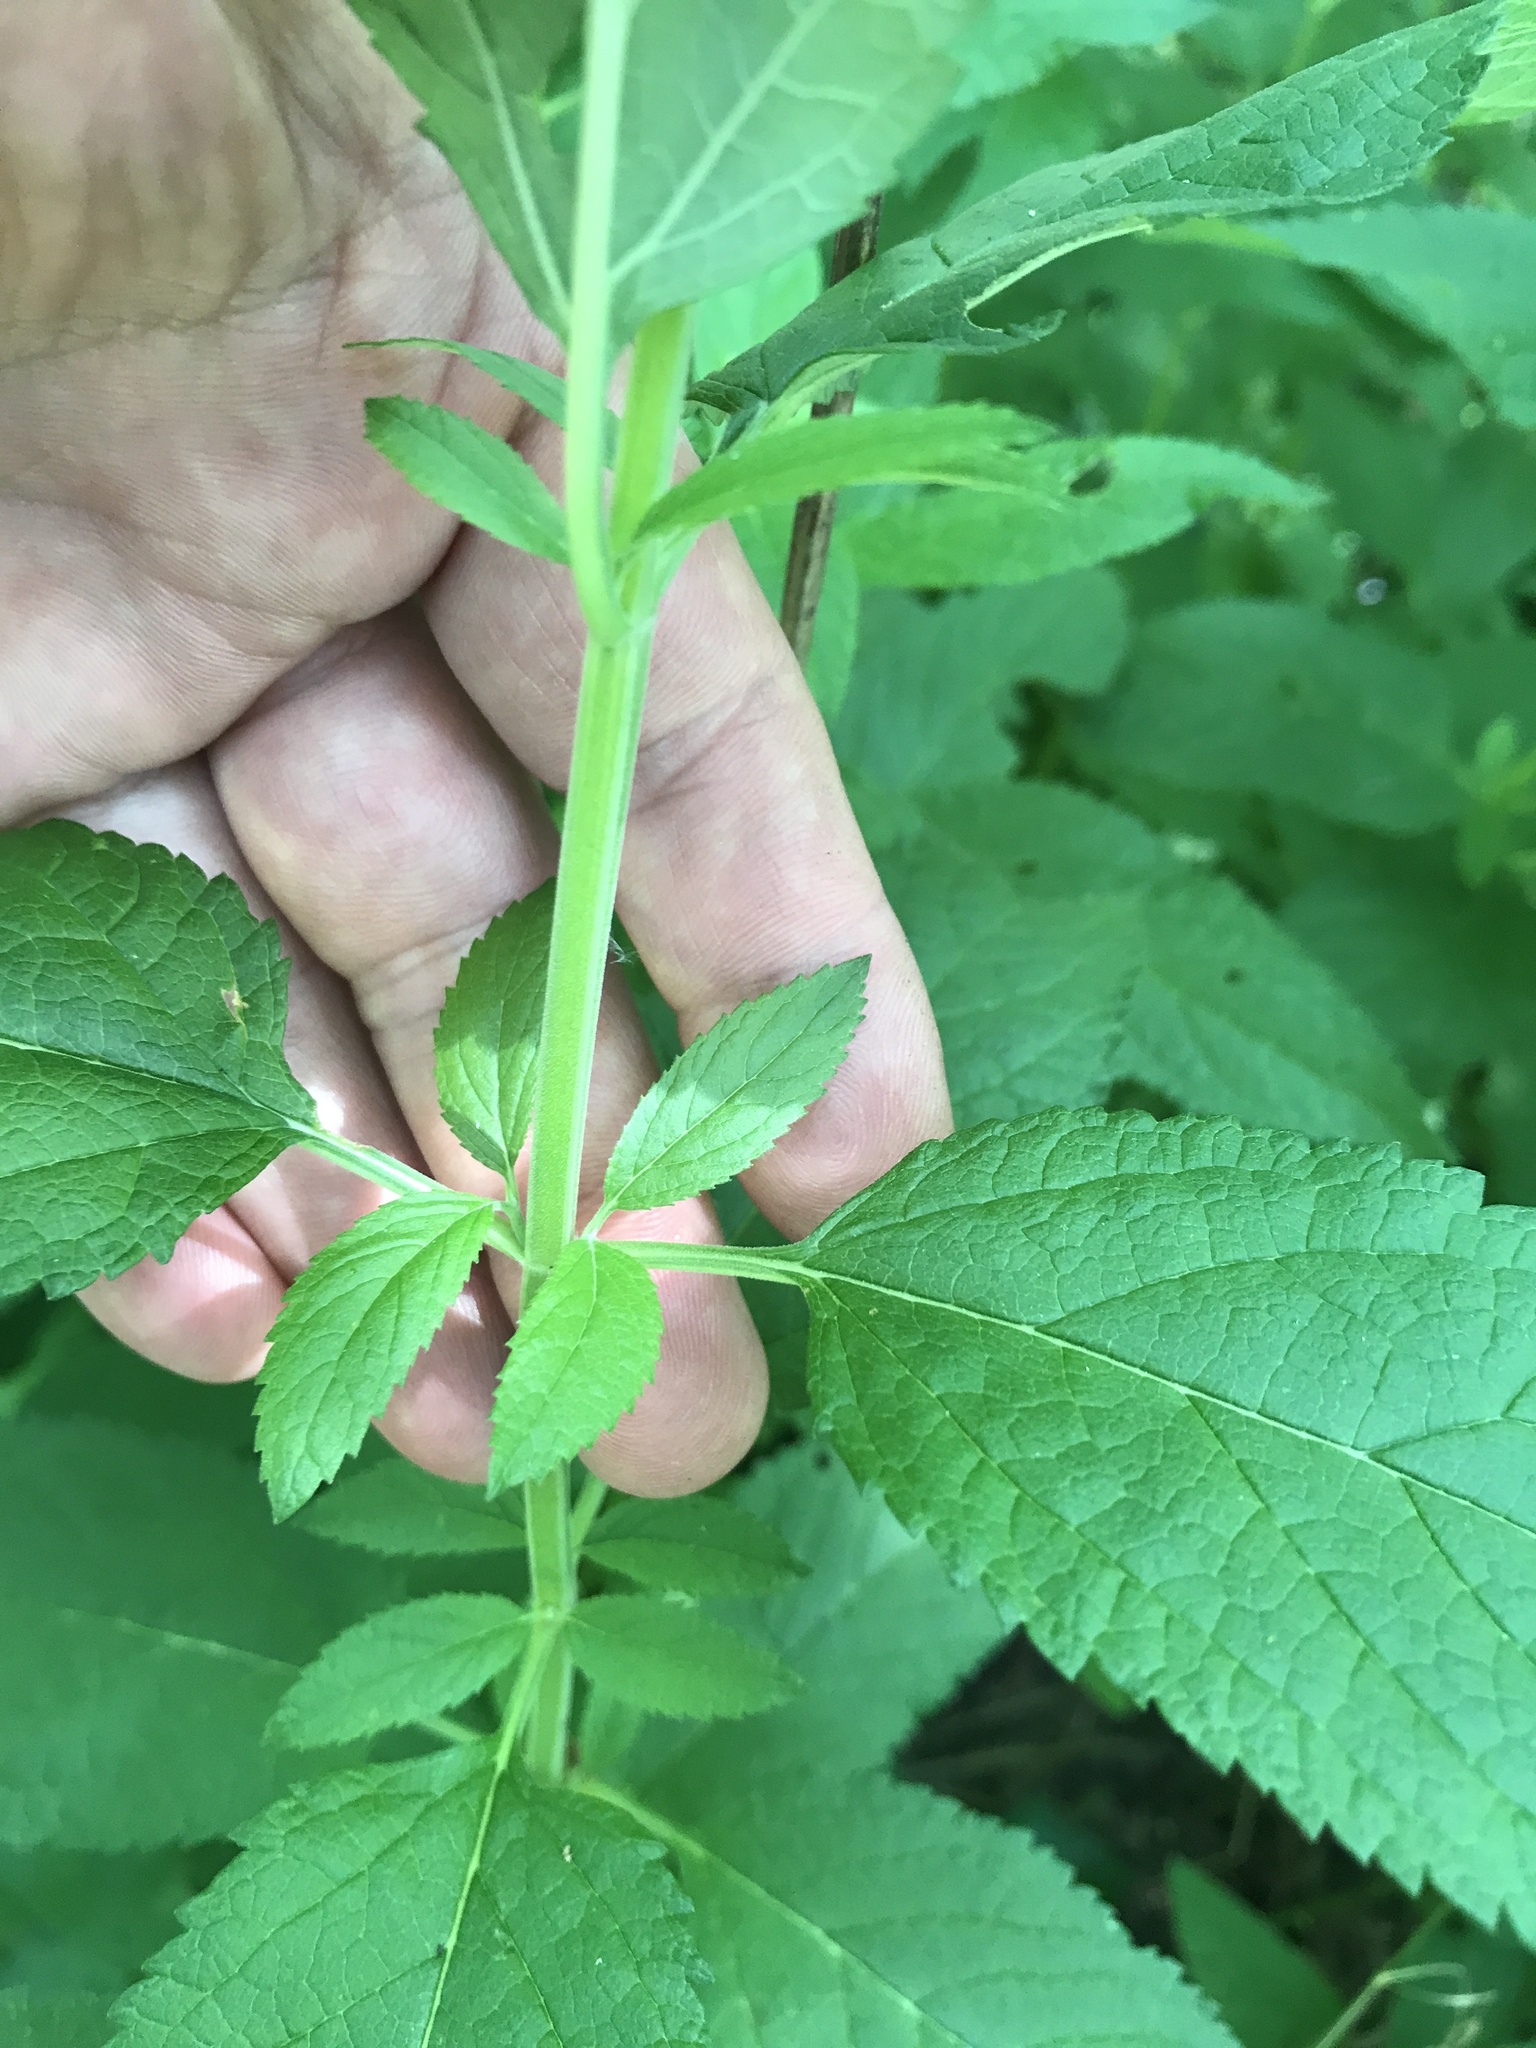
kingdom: Plantae
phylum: Tracheophyta
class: Magnoliopsida
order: Lamiales
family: Lamiaceae
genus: Teucrium
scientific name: Teucrium canadense
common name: American germander
